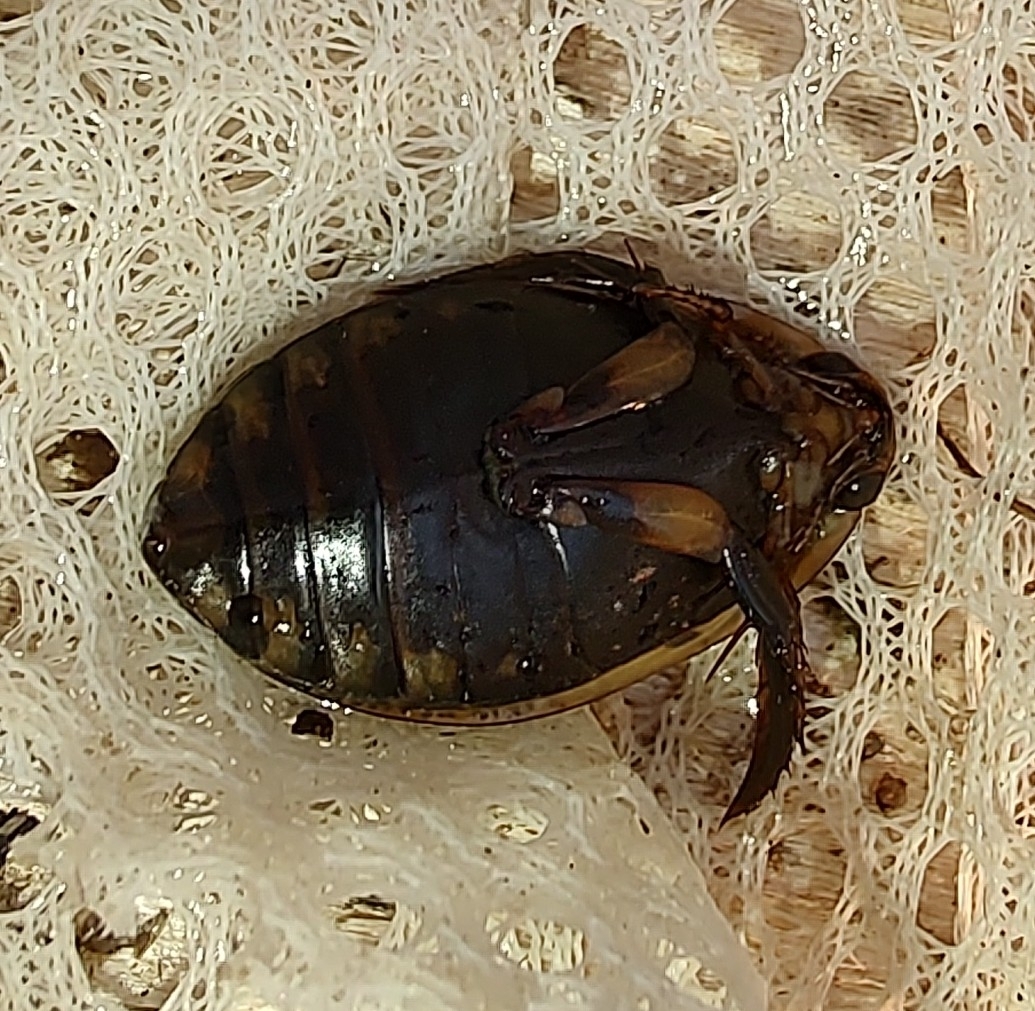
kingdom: Animalia
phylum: Arthropoda
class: Insecta
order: Coleoptera
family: Dytiscidae
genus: Acilius
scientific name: Acilius sulcatus
